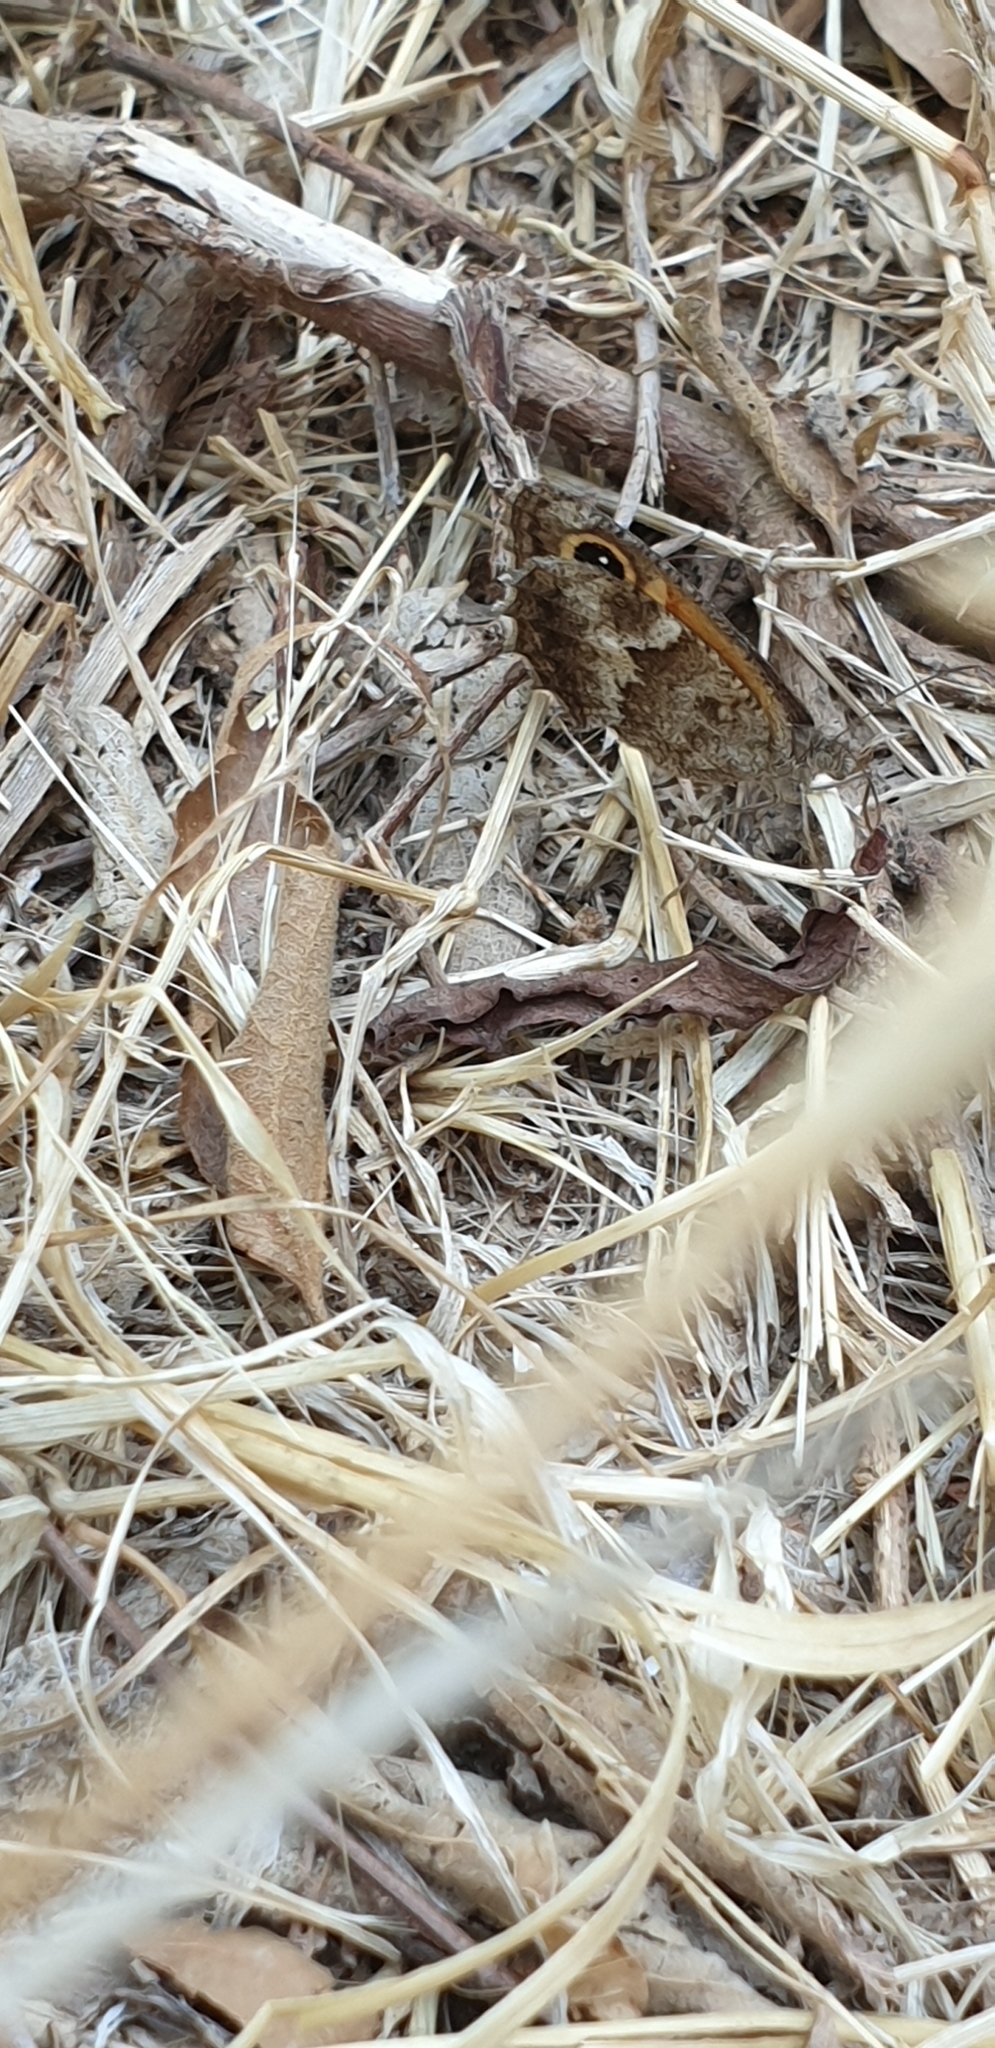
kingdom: Animalia
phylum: Arthropoda
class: Insecta
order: Lepidoptera
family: Nymphalidae
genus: Pyronia
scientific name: Pyronia cecilia
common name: Southern gatekeeper
